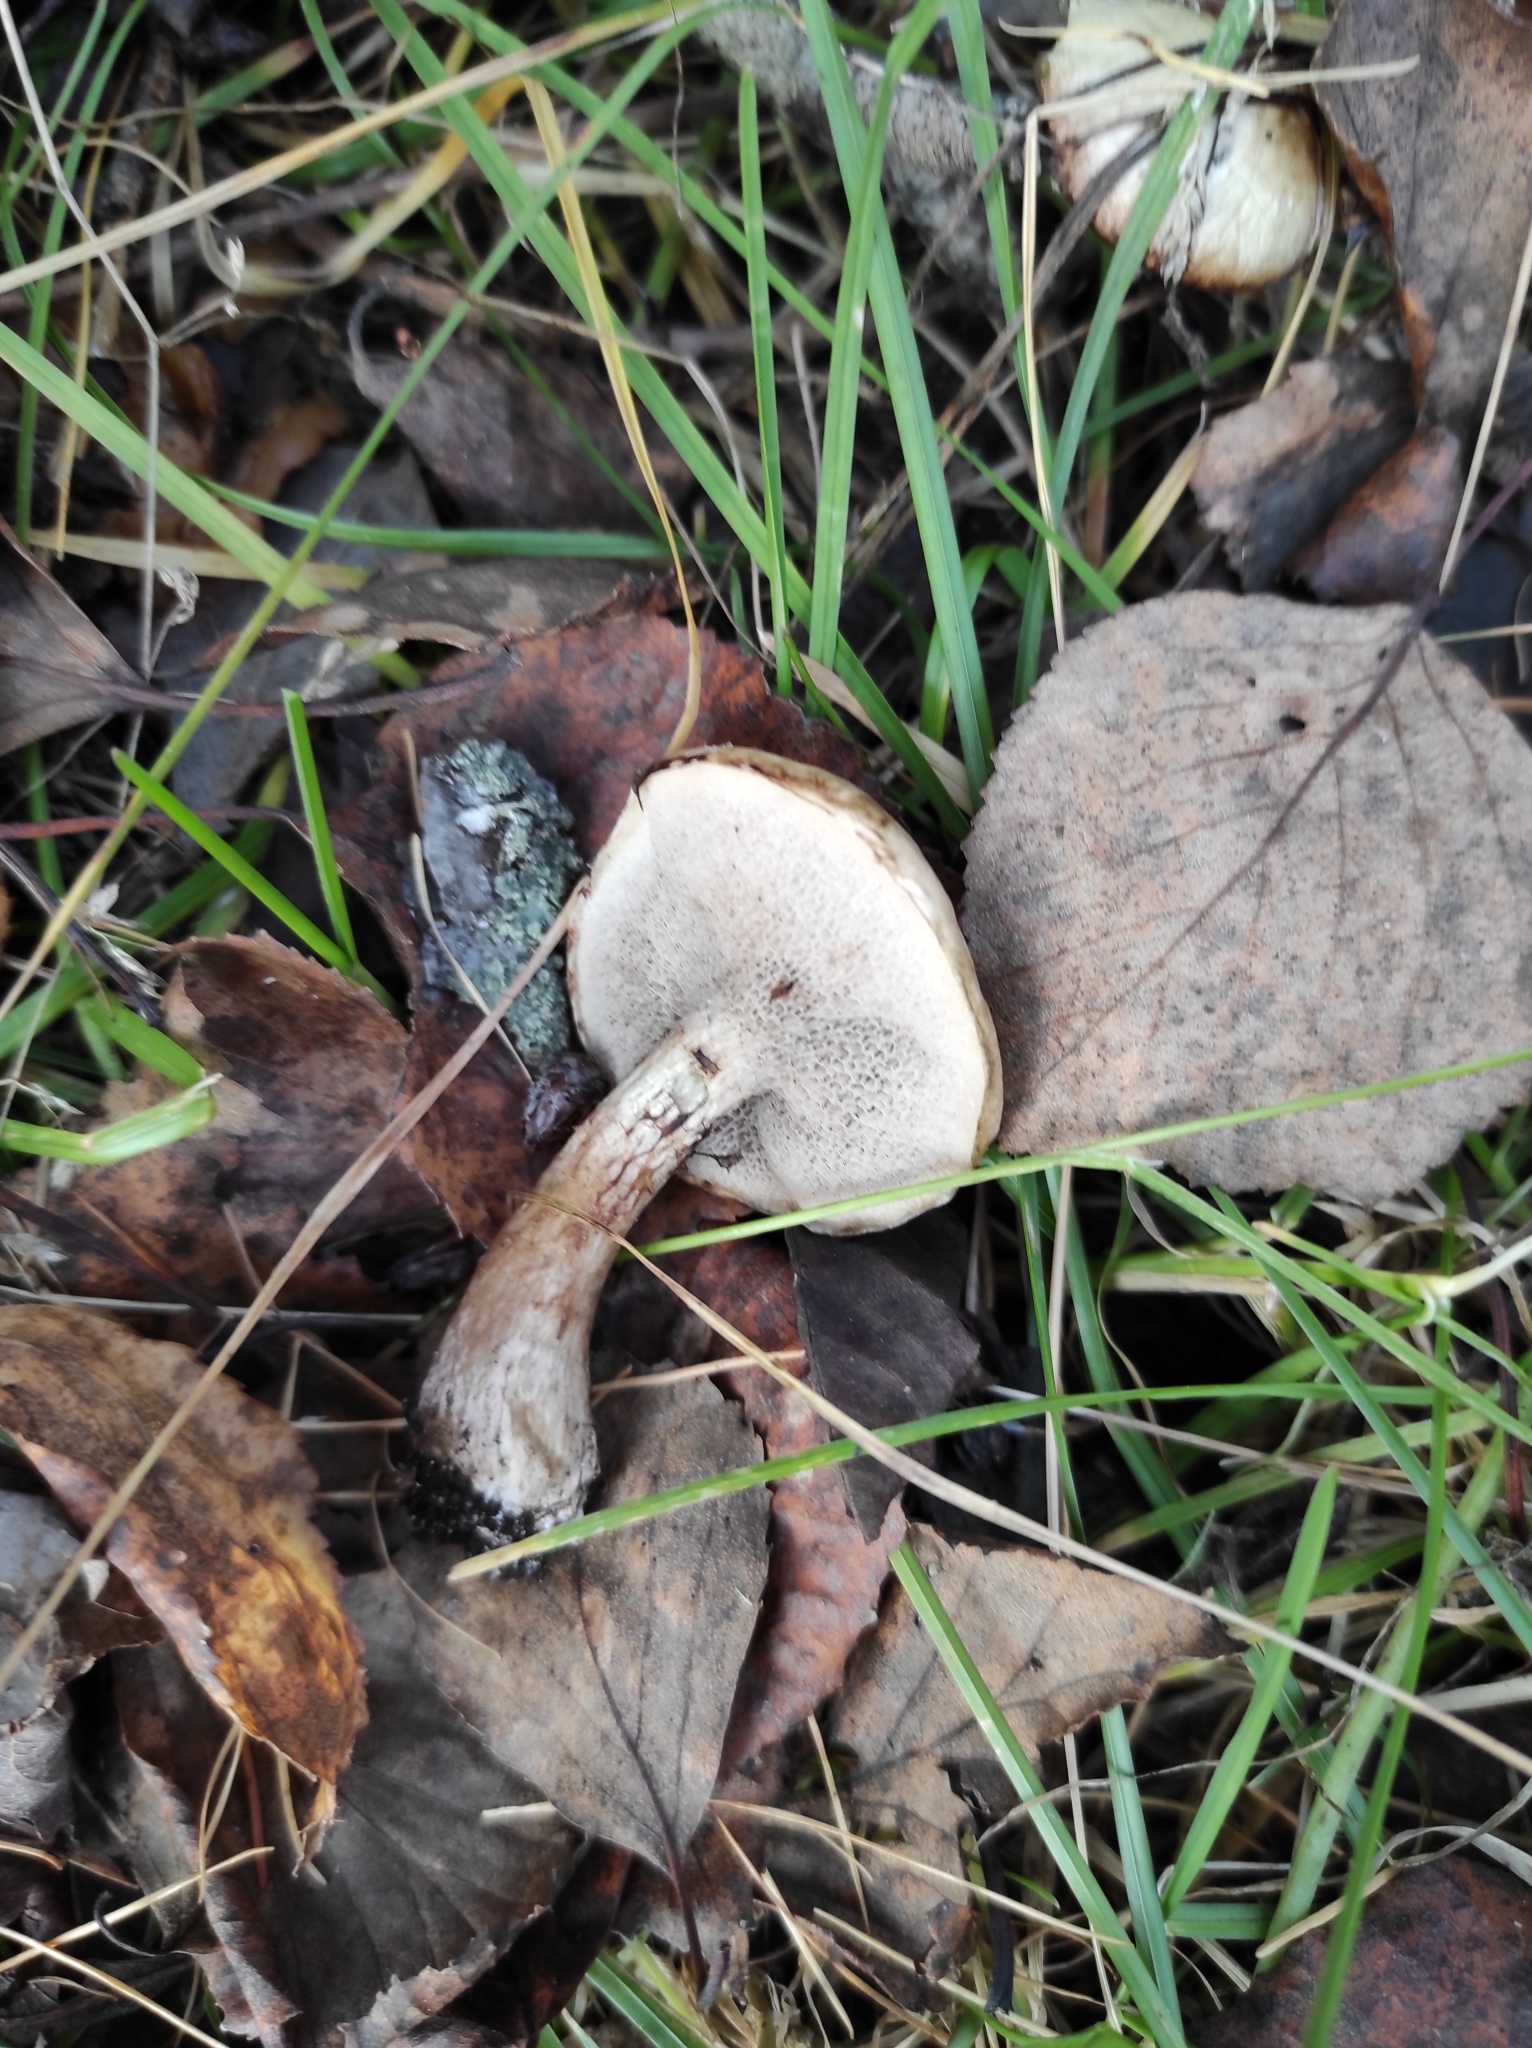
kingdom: Fungi
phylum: Basidiomycota
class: Agaricomycetes
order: Boletales
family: Suillaceae
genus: Suillus
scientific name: Suillus viscidus
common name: Sticky bolete
